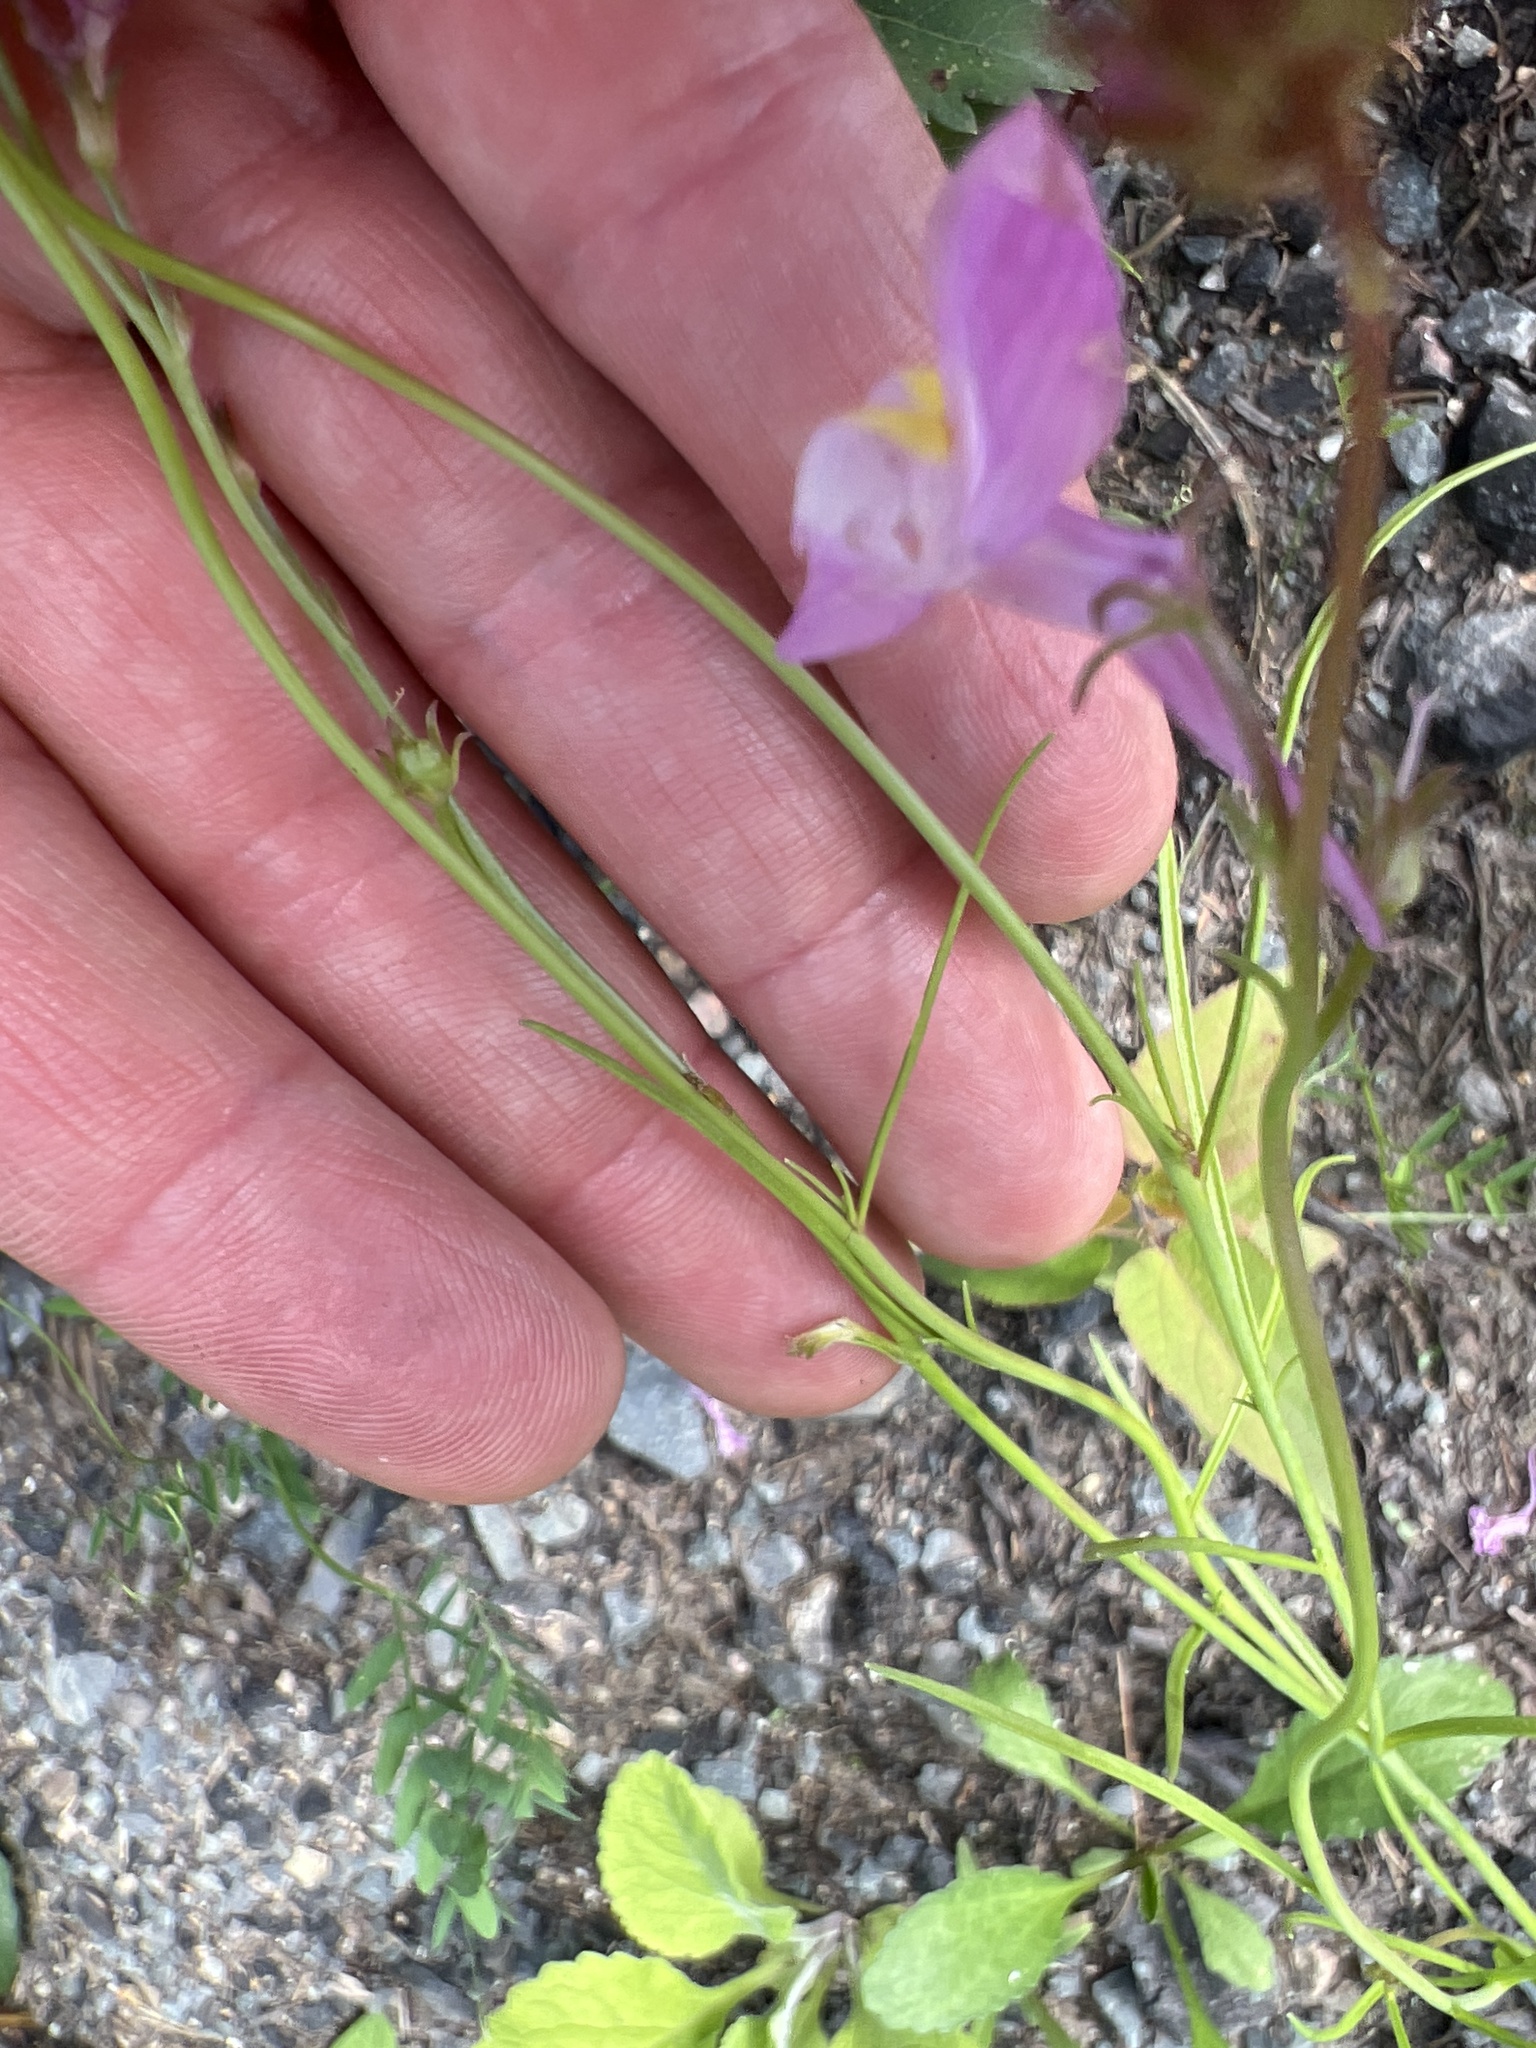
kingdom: Plantae
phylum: Tracheophyta
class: Magnoliopsida
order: Lamiales
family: Plantaginaceae
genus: Linaria
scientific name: Linaria maroccana
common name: Moroccan toadflax
